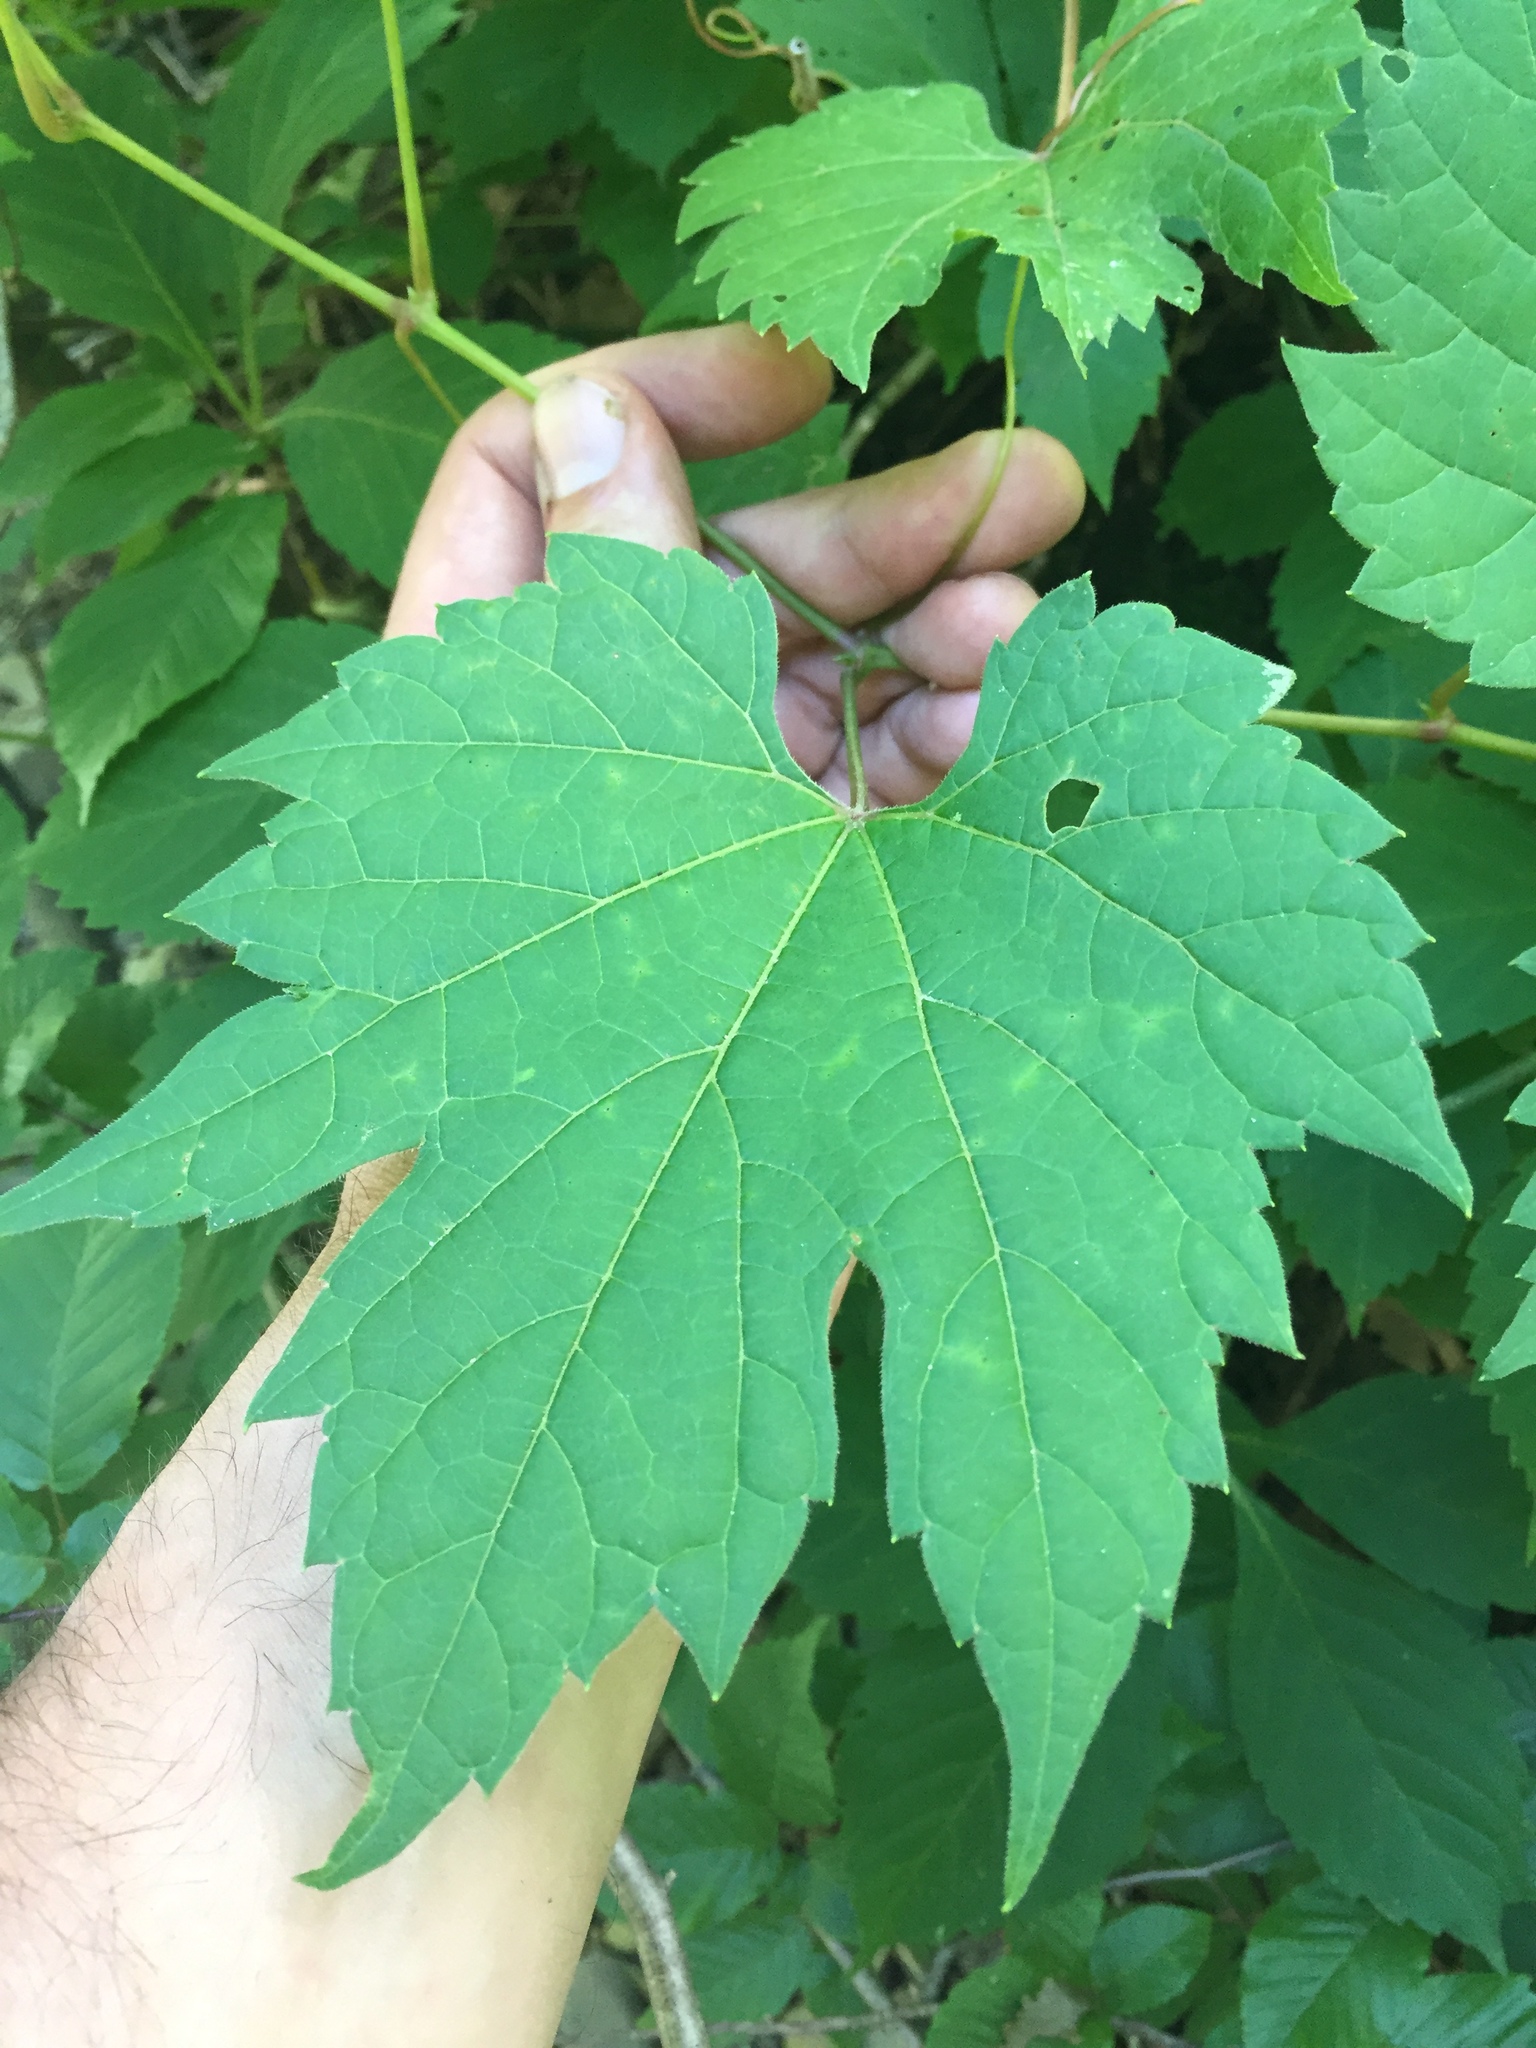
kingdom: Plantae
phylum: Tracheophyta
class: Magnoliopsida
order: Vitales
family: Vitaceae
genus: Vitis
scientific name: Vitis riparia
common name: Frost grape
